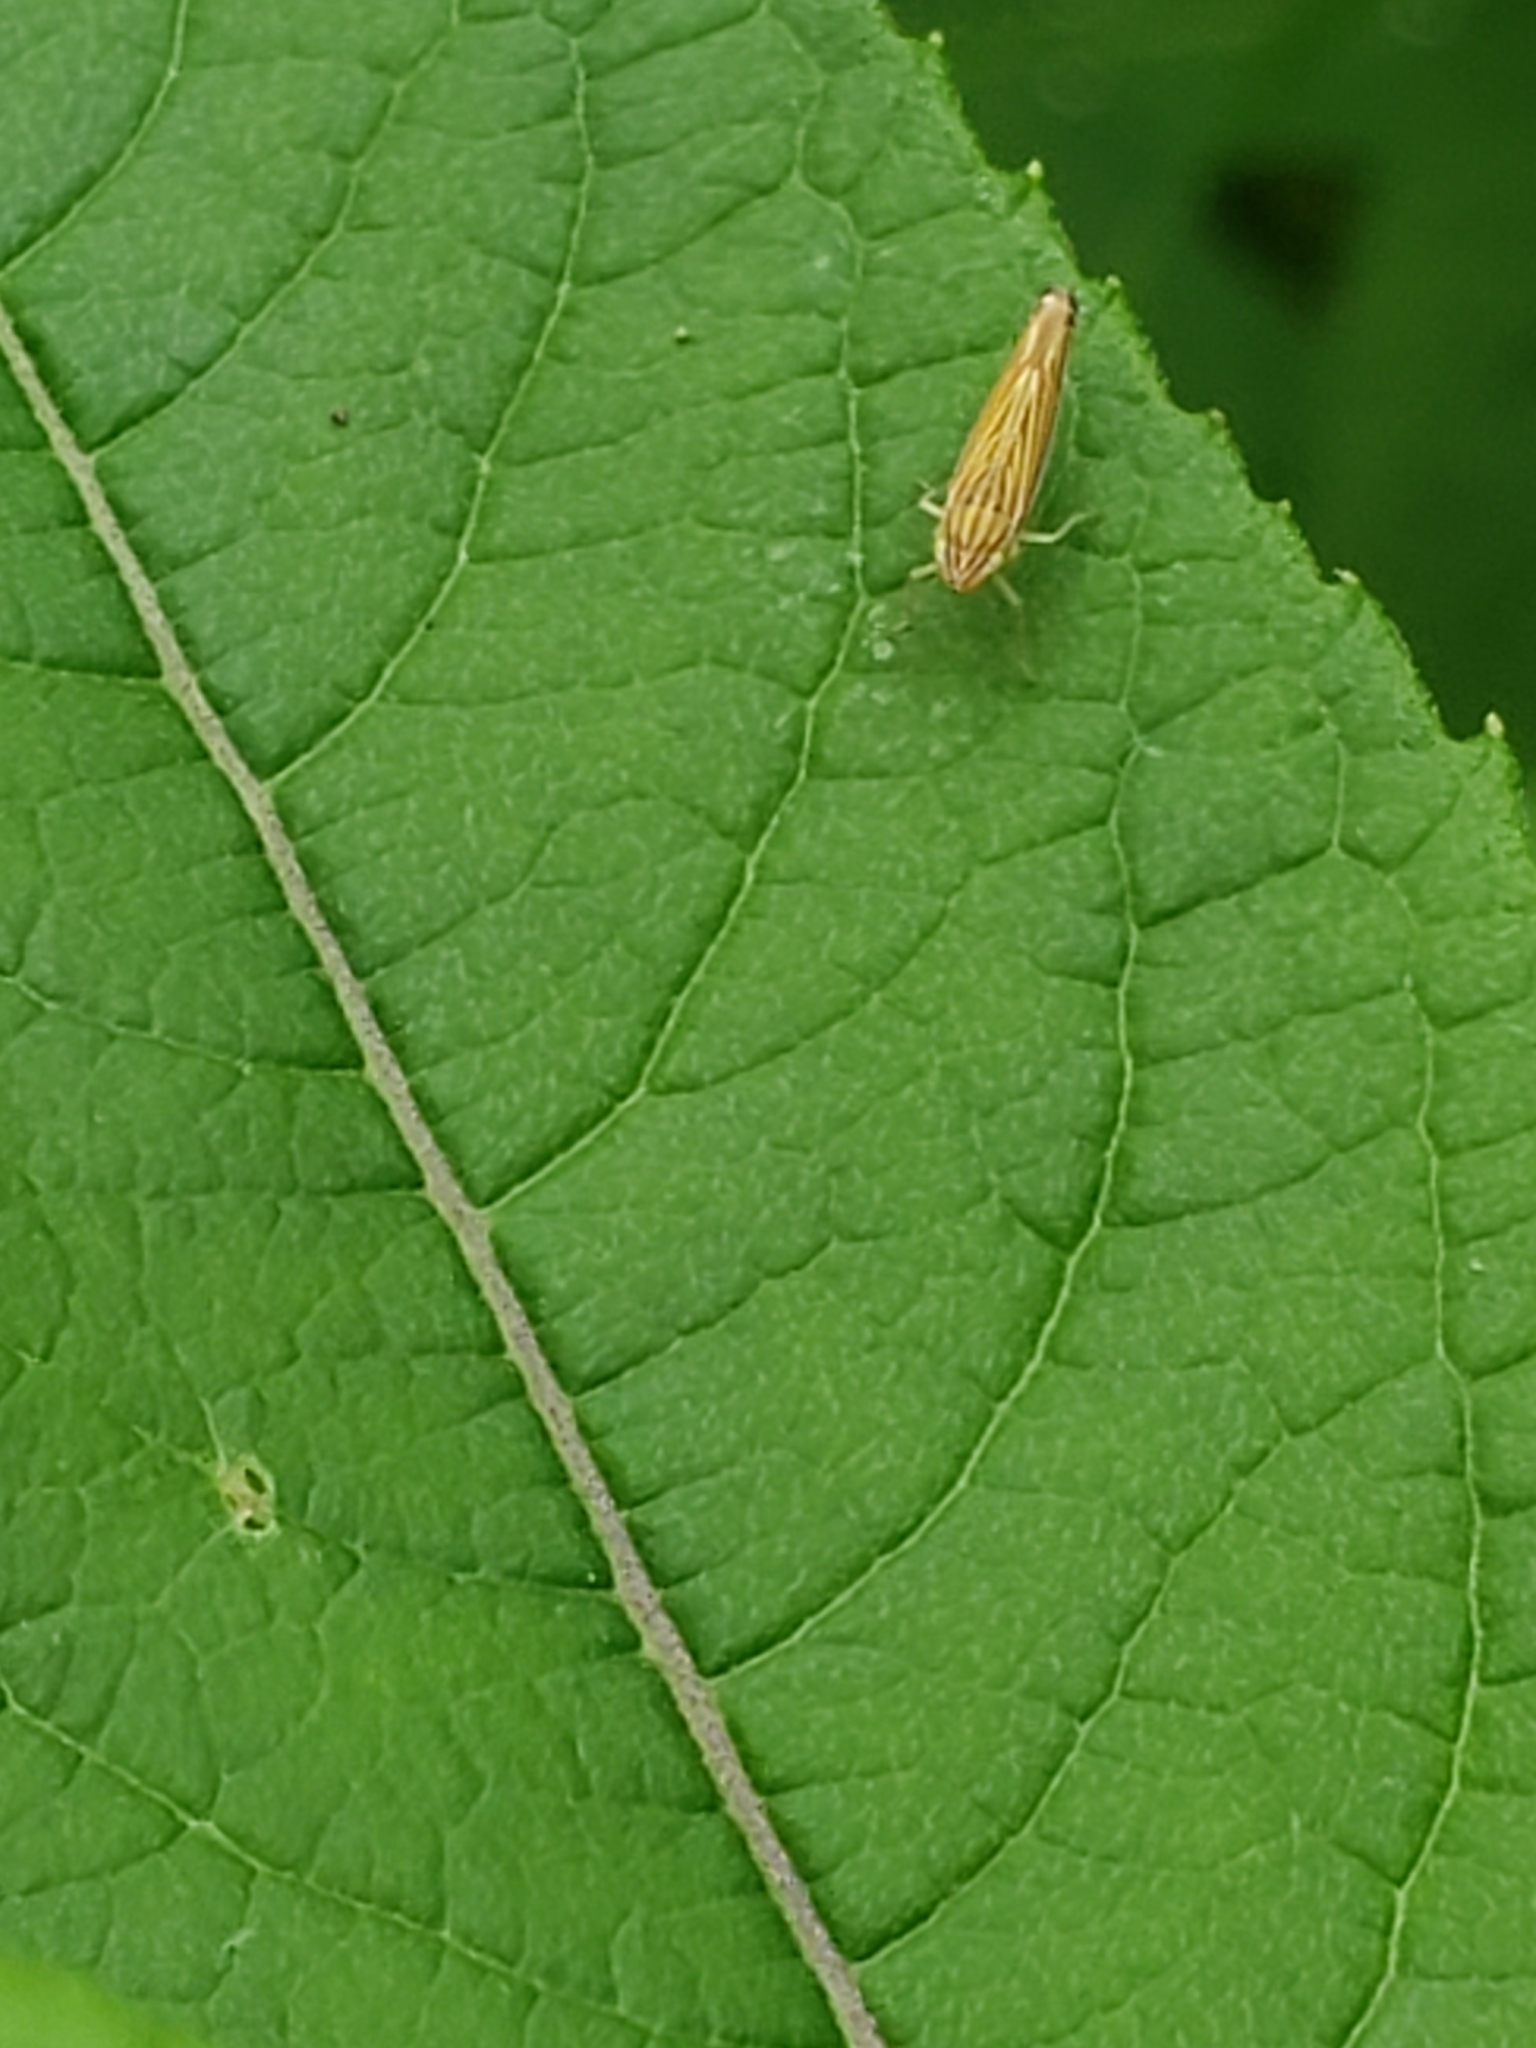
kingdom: Animalia
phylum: Arthropoda
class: Insecta
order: Hemiptera
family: Cicadellidae
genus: Sibovia
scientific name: Sibovia occatoria
